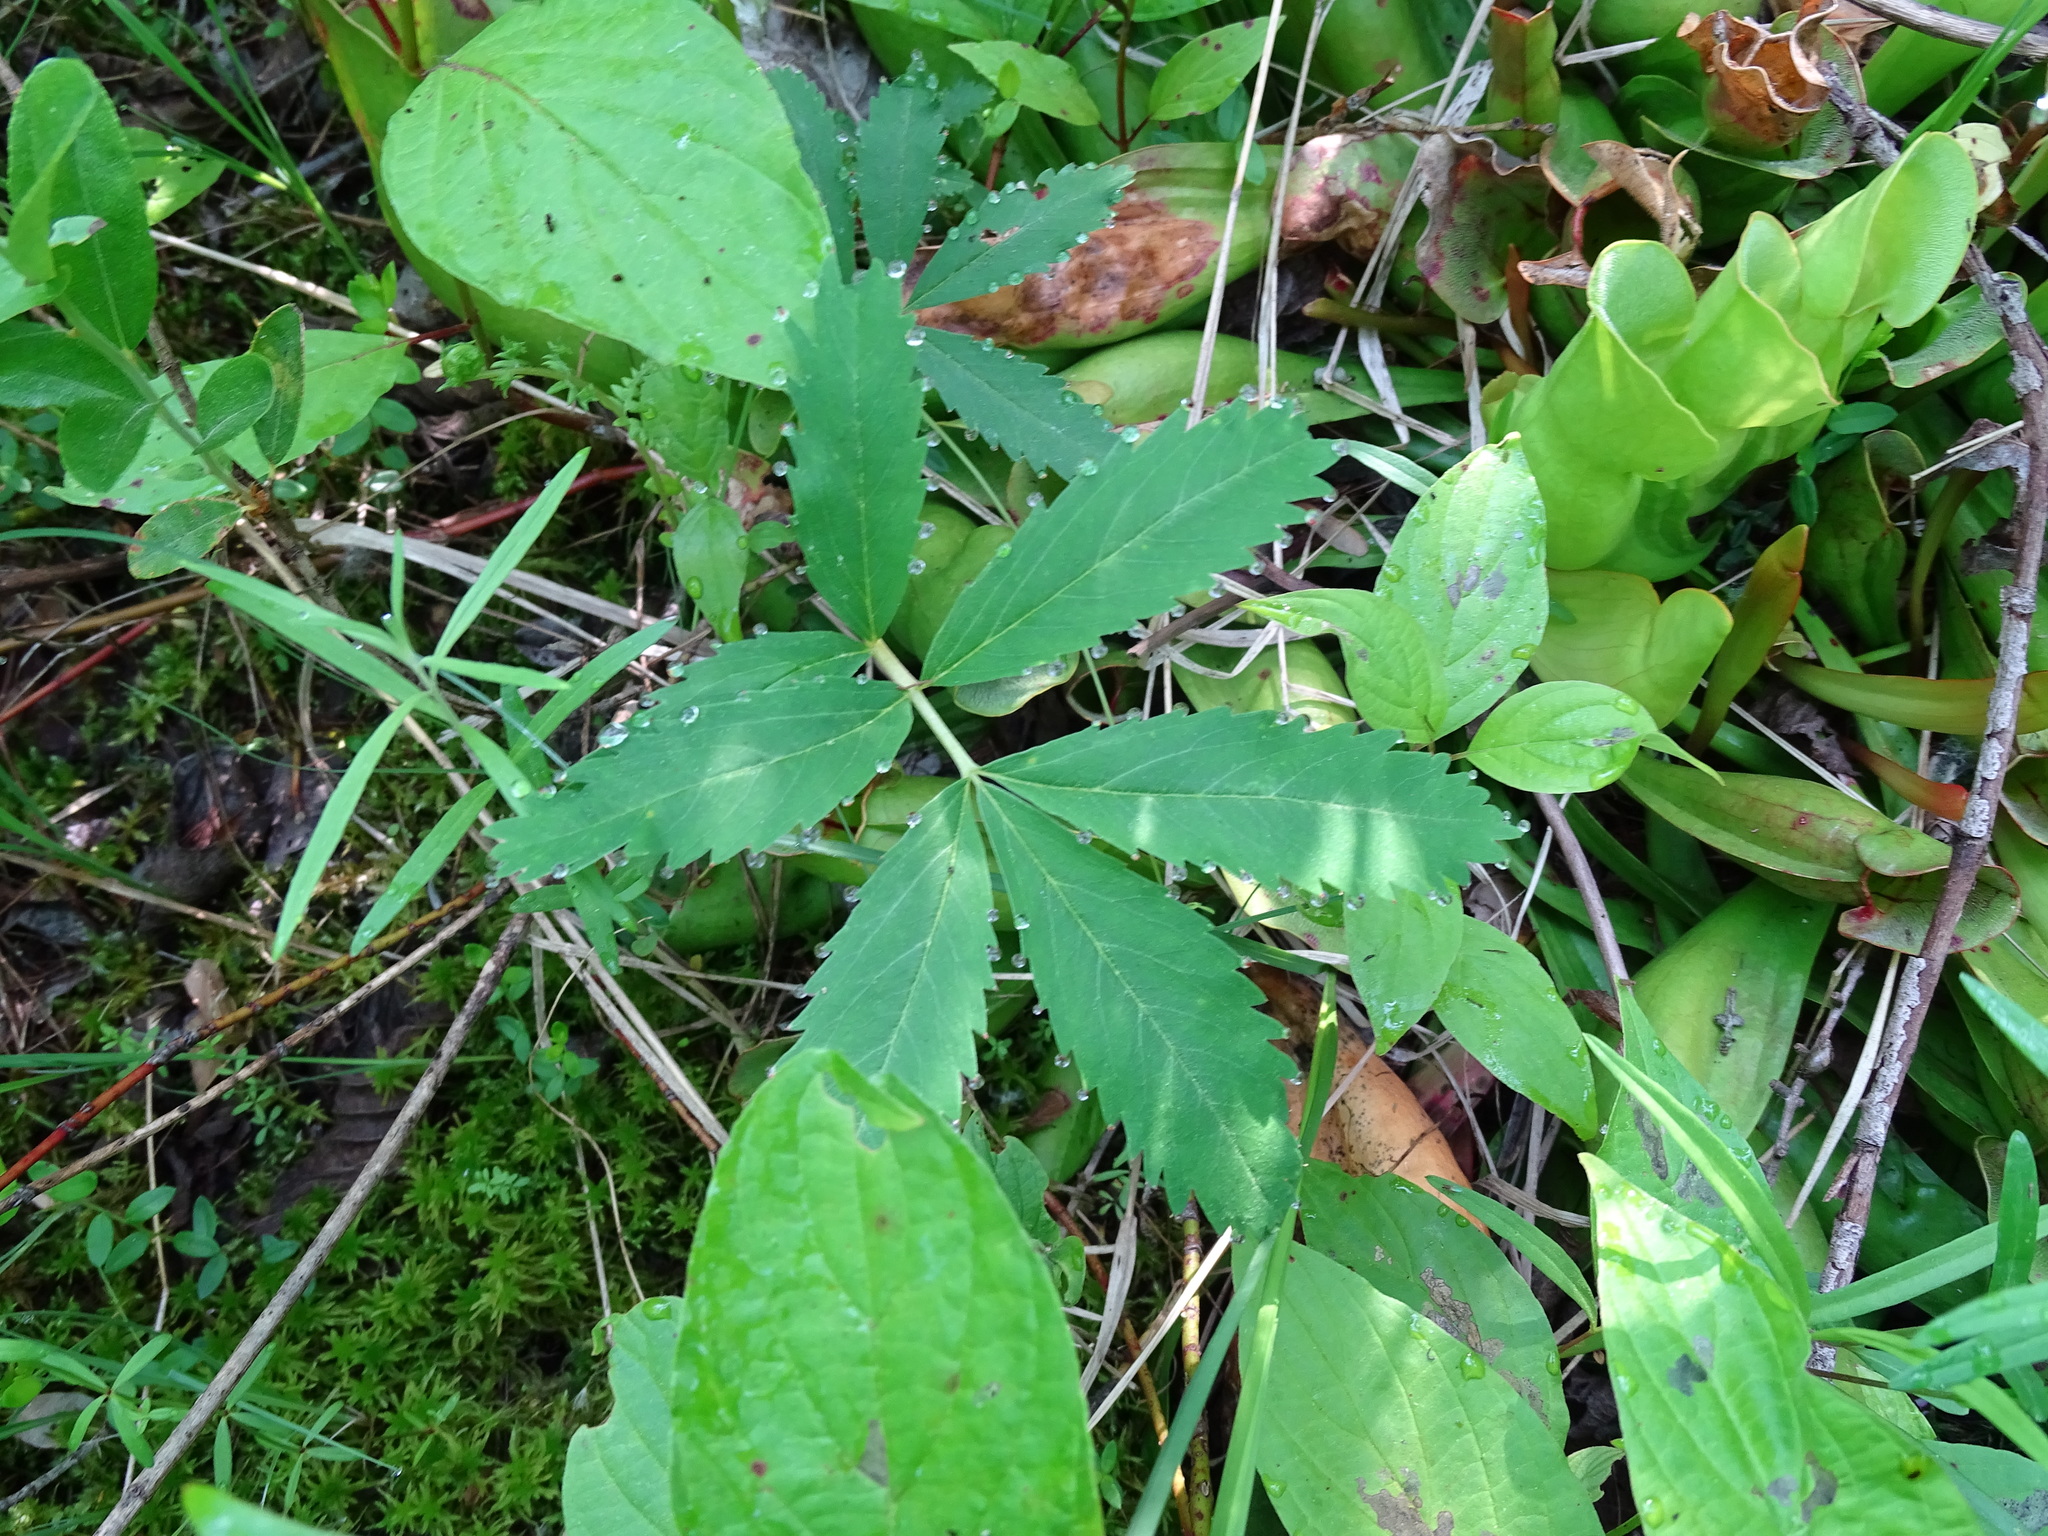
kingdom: Plantae
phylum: Tracheophyta
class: Magnoliopsida
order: Rosales
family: Rosaceae
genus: Comarum
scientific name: Comarum palustre
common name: Marsh cinquefoil
